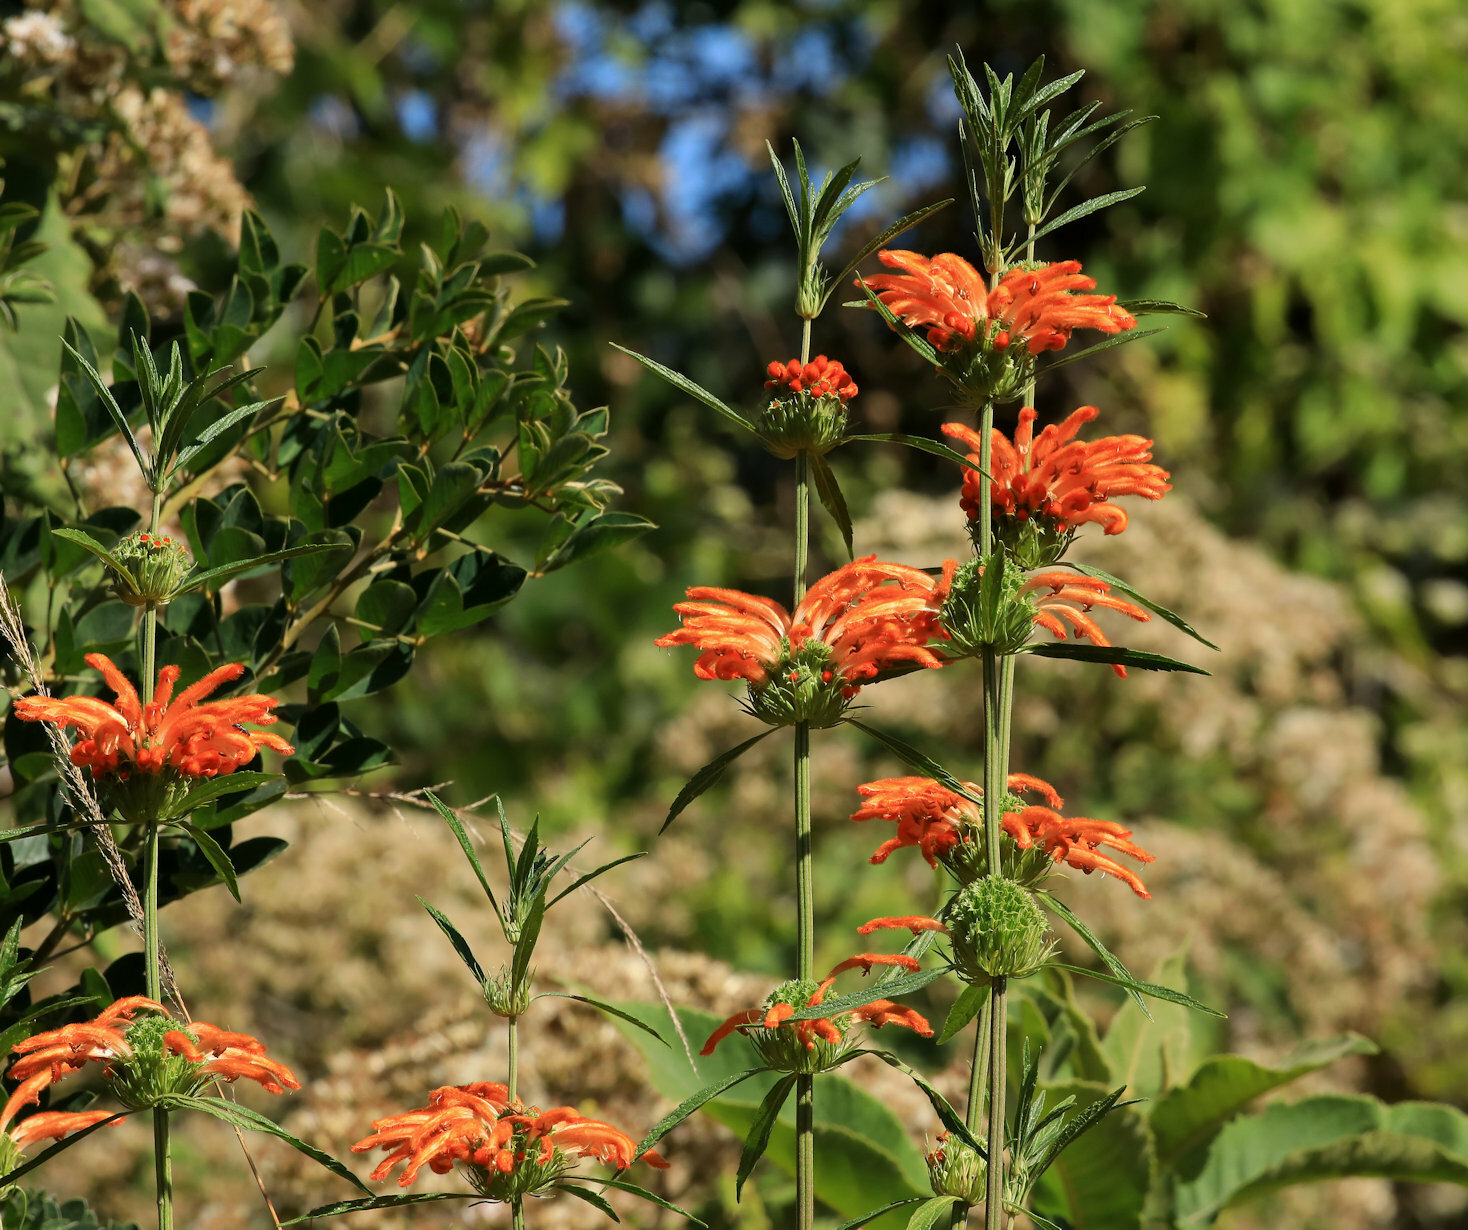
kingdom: Plantae
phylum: Tracheophyta
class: Magnoliopsida
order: Lamiales
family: Lamiaceae
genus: Leonotis
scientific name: Leonotis leonurus
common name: Lion's ear
